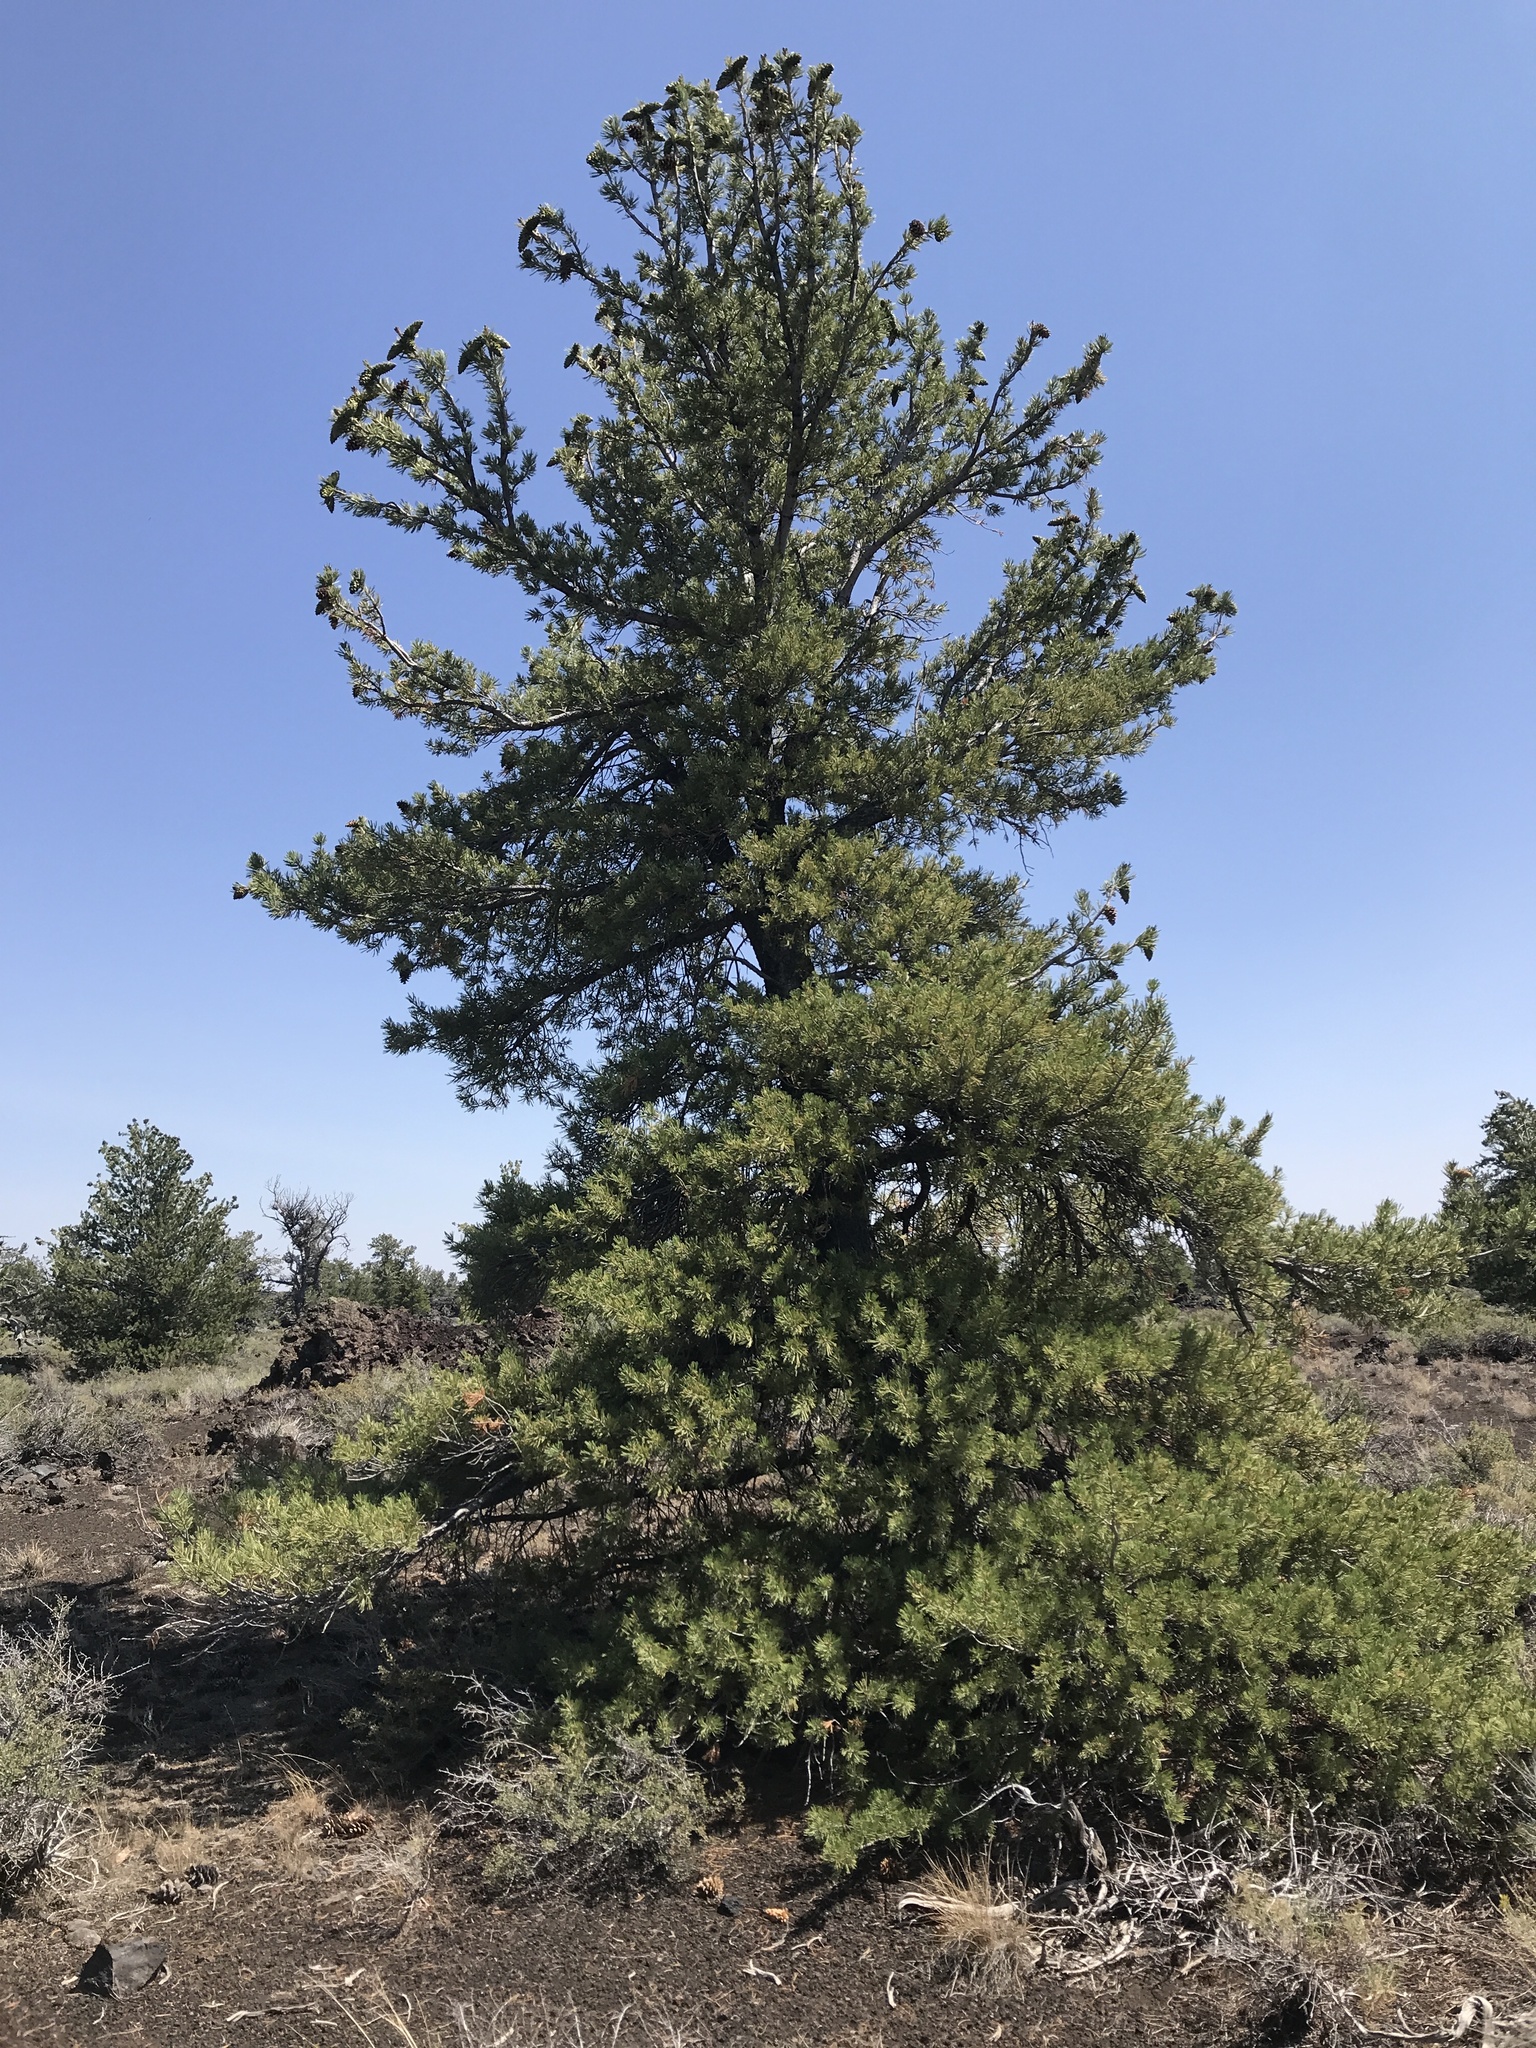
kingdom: Plantae
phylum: Tracheophyta
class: Pinopsida
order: Pinales
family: Pinaceae
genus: Pinus
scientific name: Pinus flexilis
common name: Limber pine
